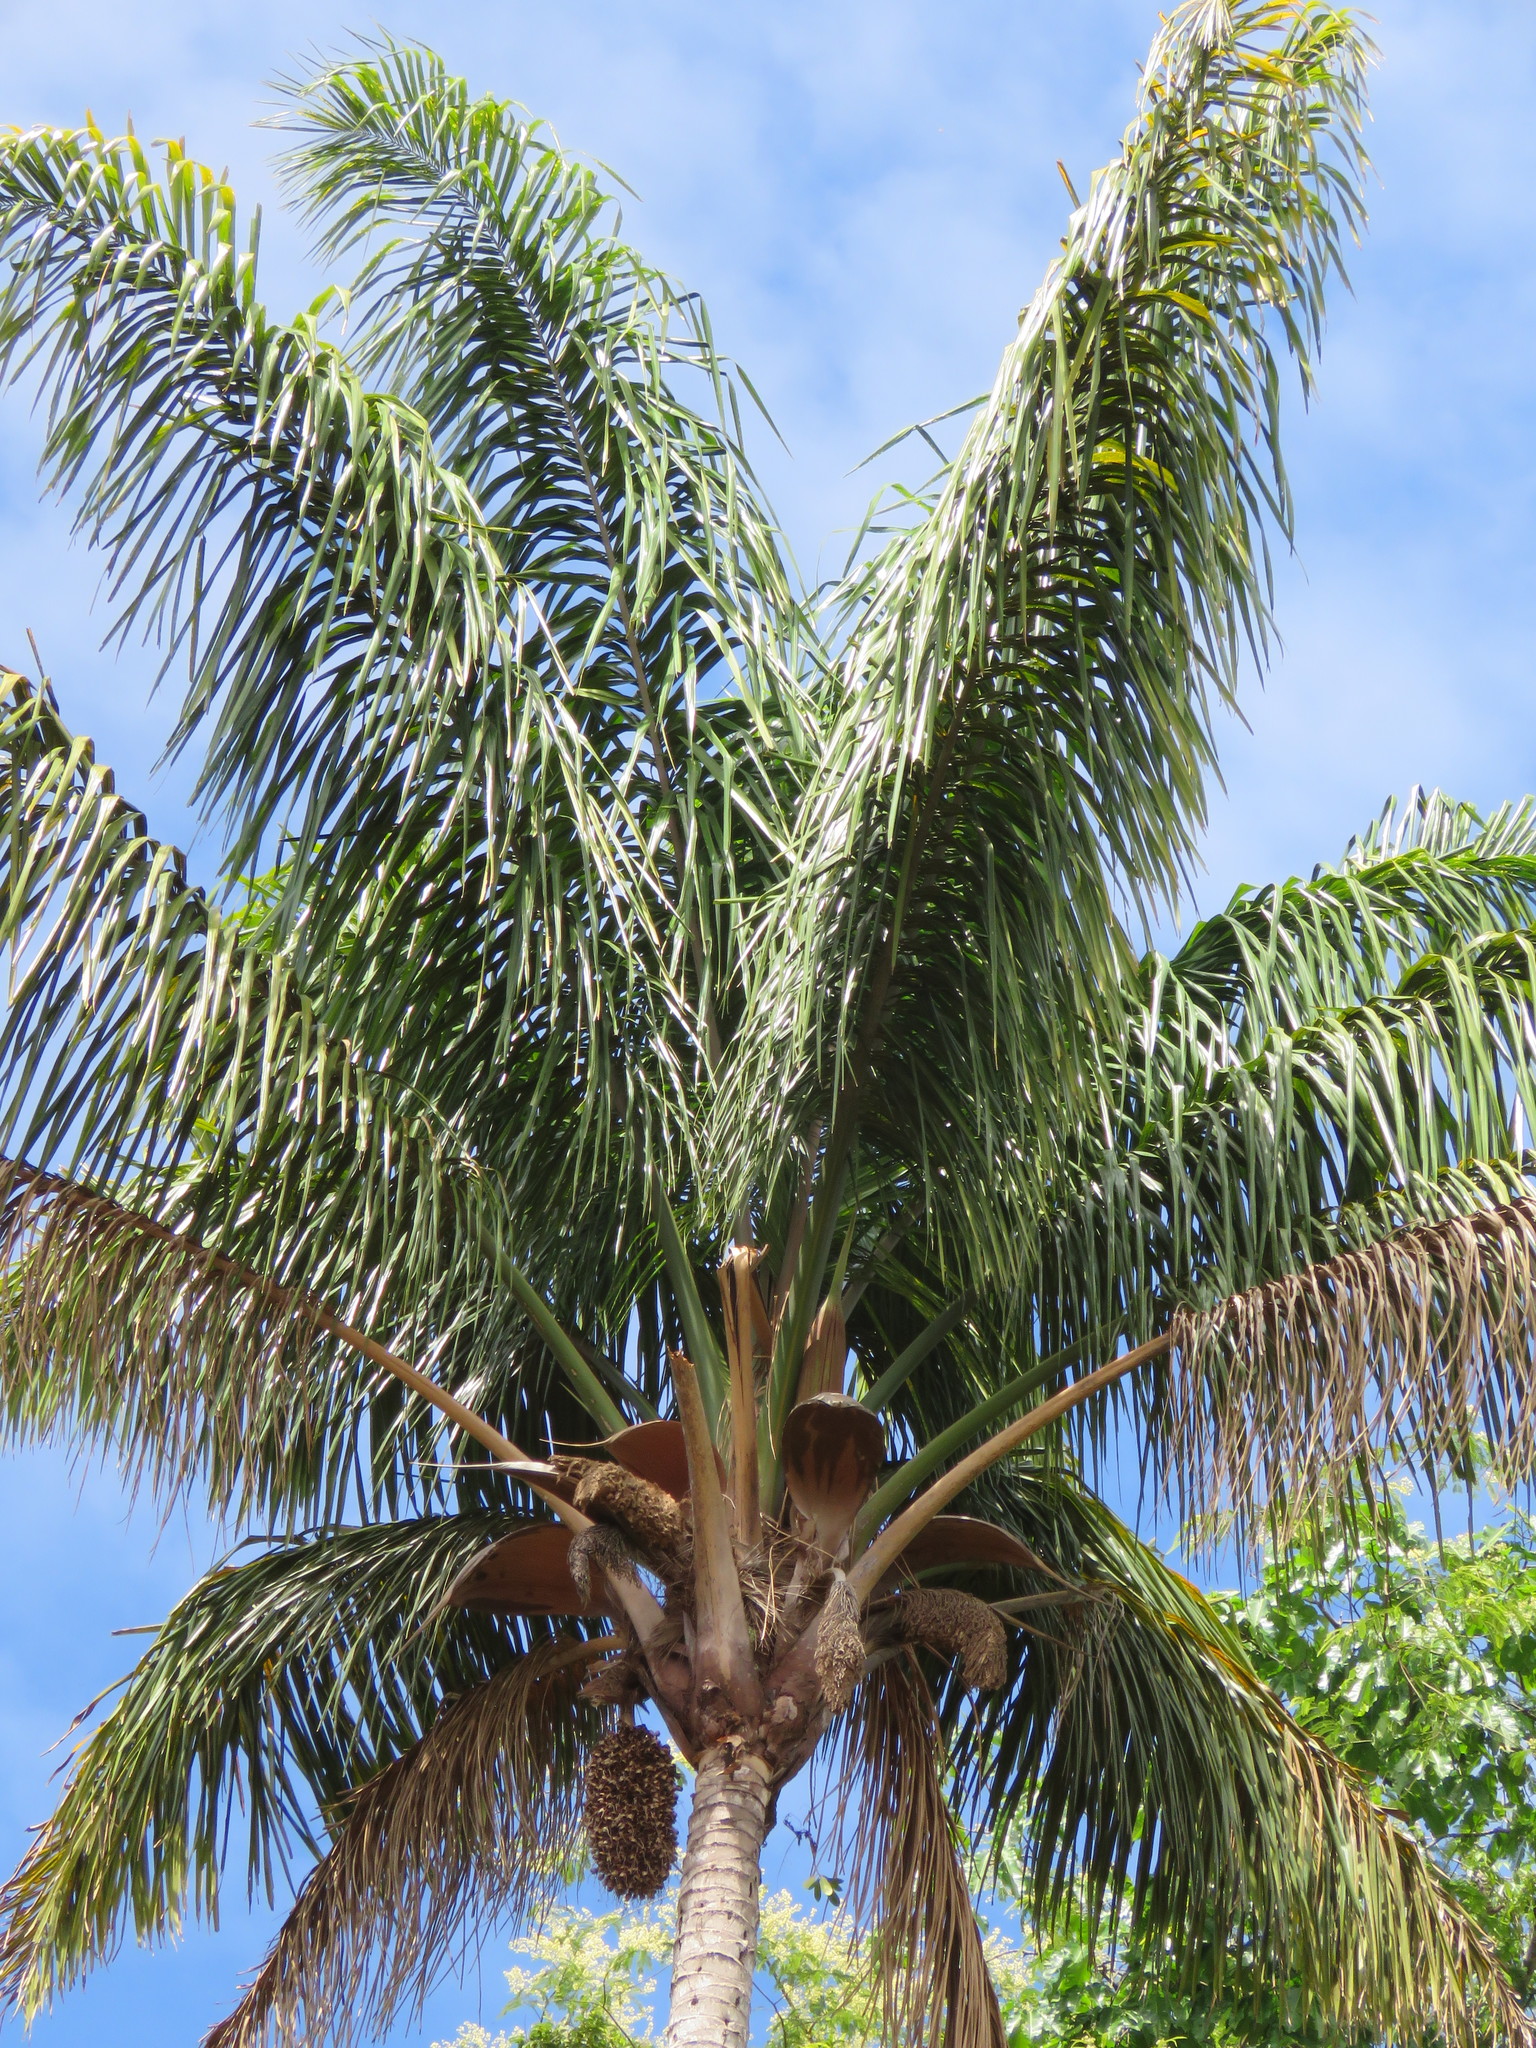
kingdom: Plantae
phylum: Tracheophyta
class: Liliopsida
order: Arecales
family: Arecaceae
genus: Attalea
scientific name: Attalea maripa
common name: Maripa palm
